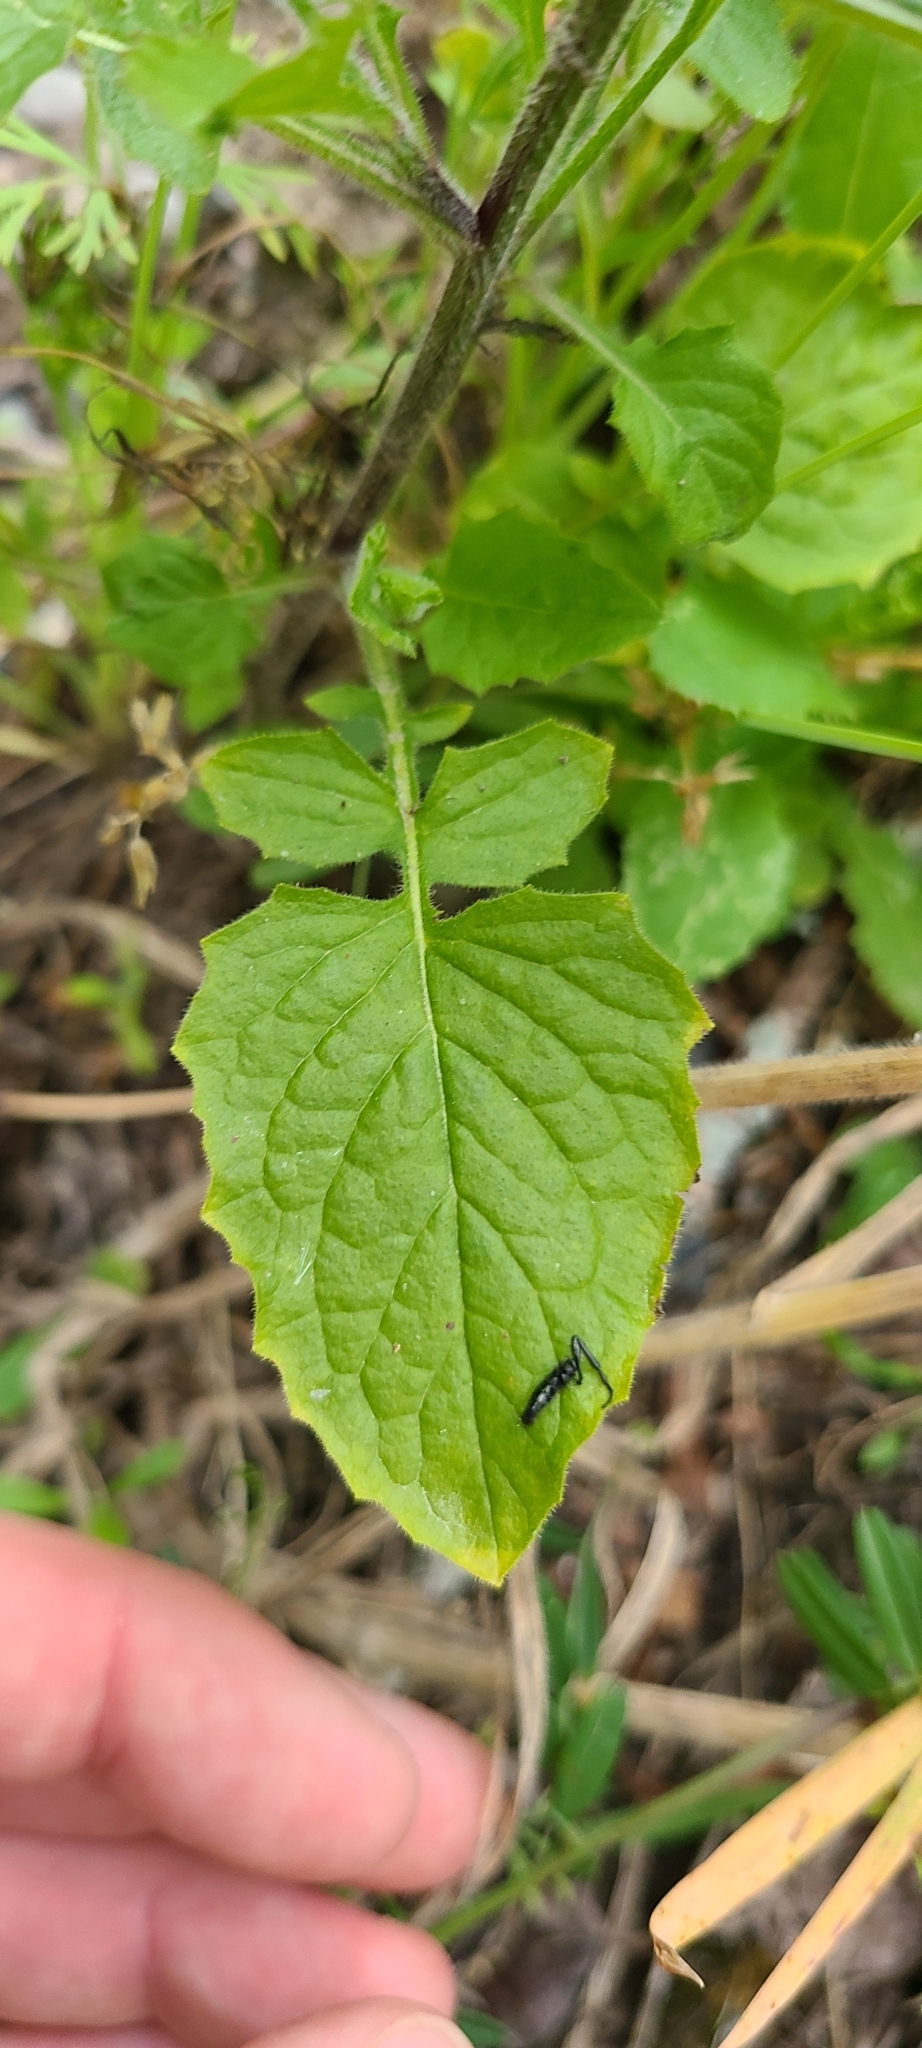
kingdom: Plantae
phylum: Tracheophyta
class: Magnoliopsida
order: Asterales
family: Asteraceae
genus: Lapsana
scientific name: Lapsana communis
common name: Nipplewort
